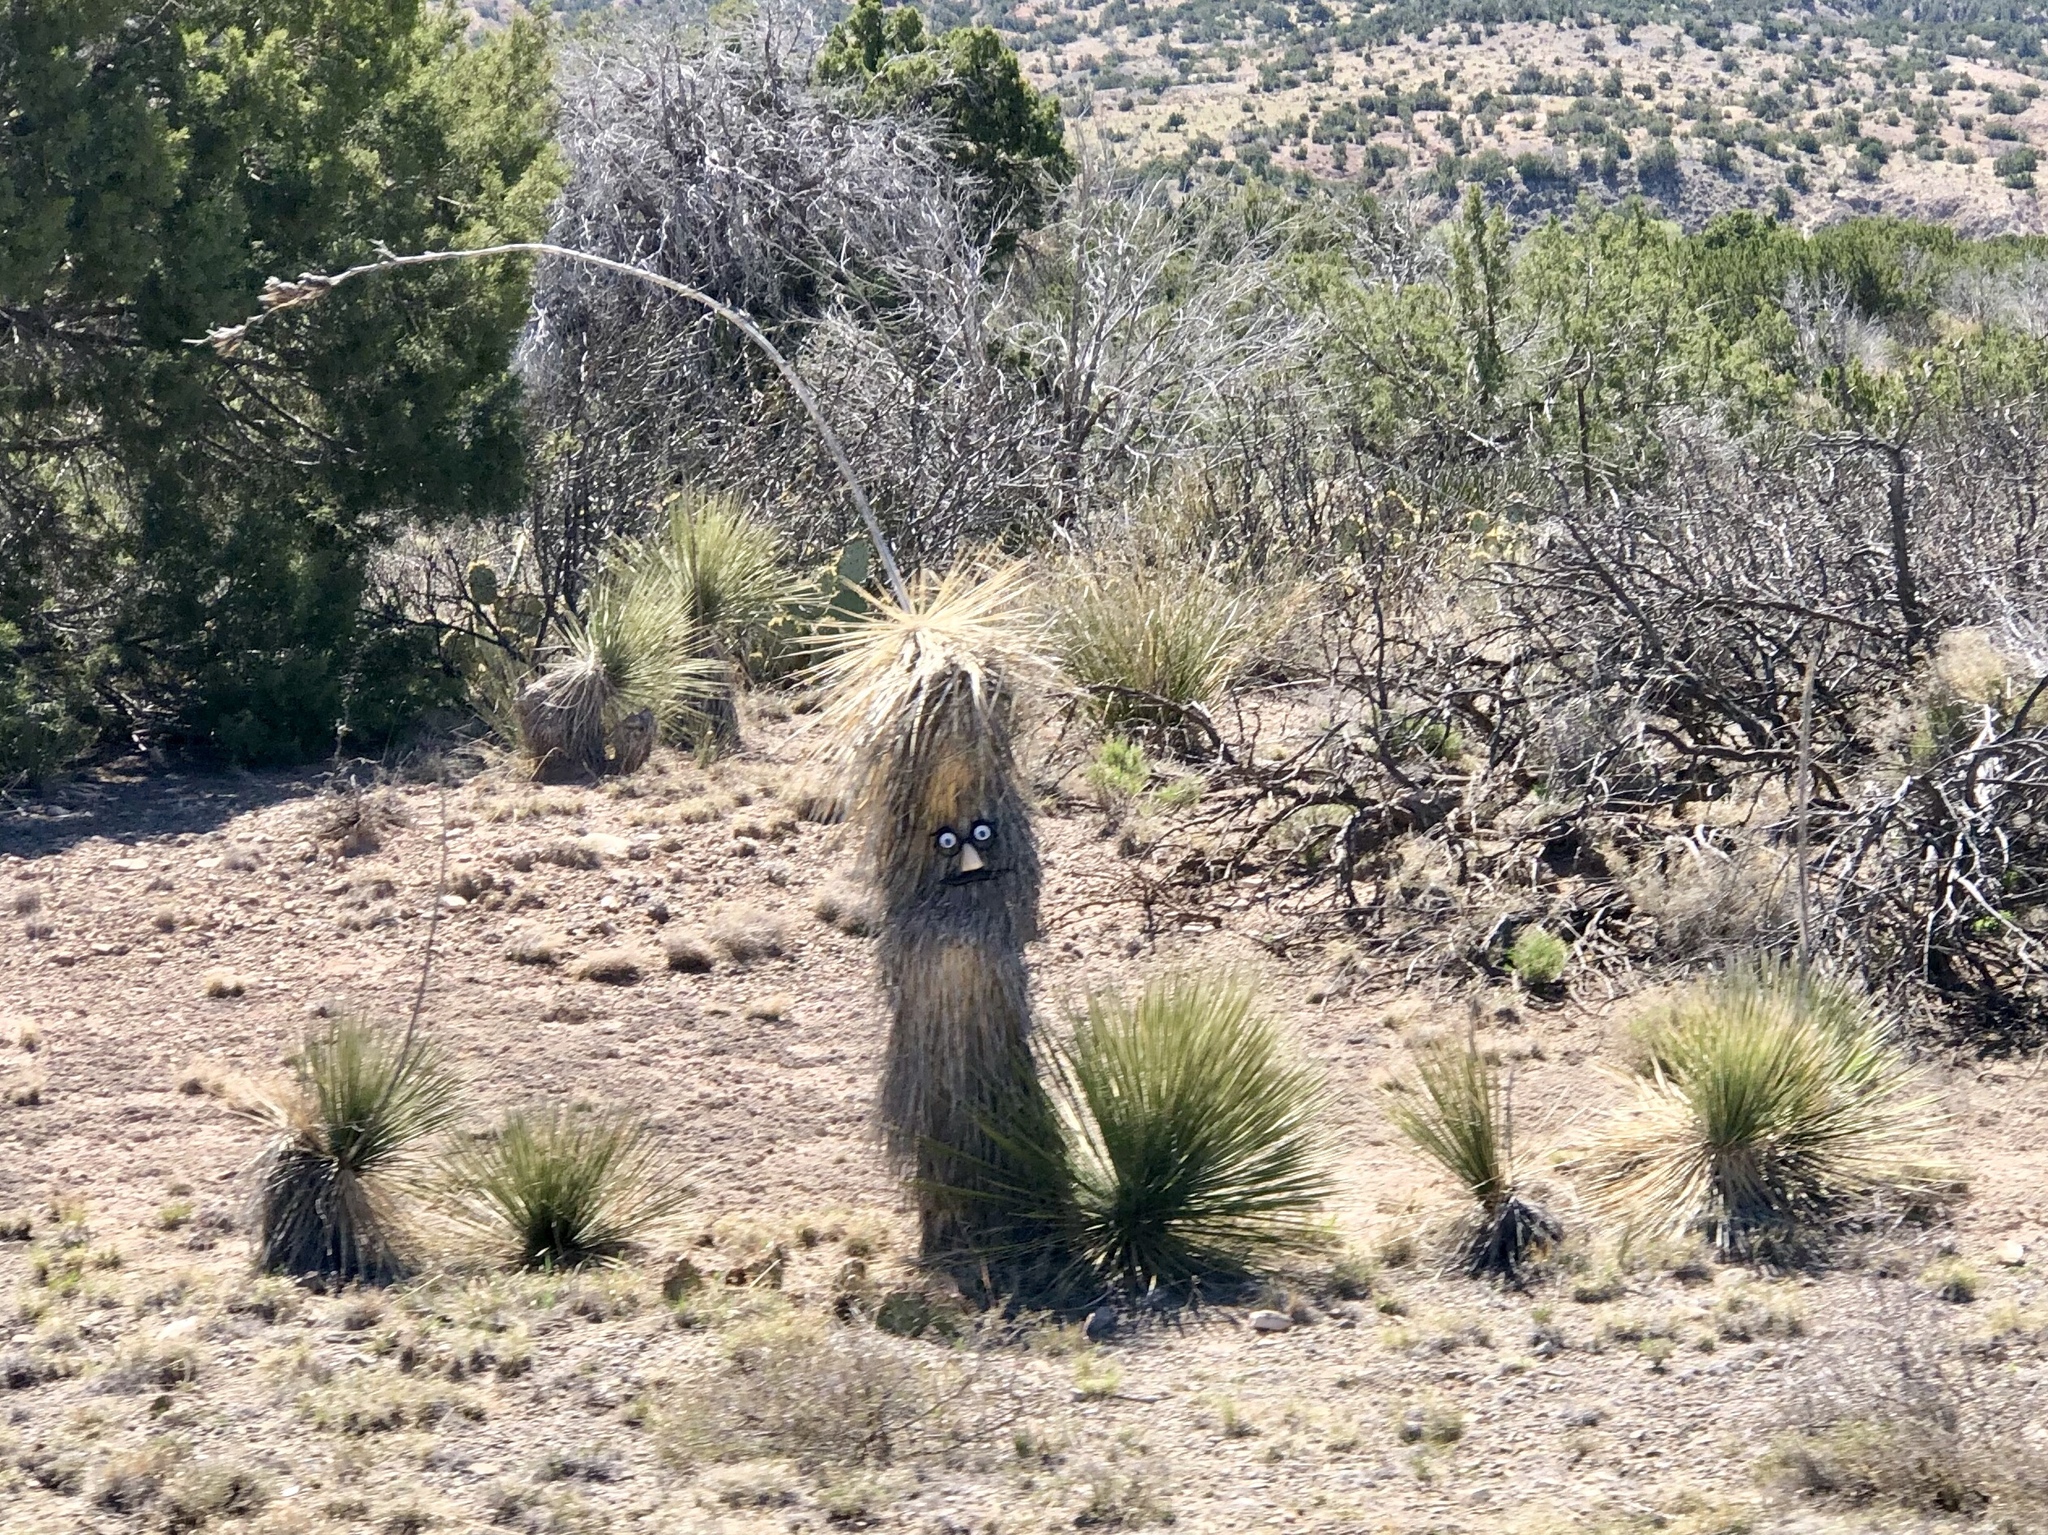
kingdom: Plantae
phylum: Tracheophyta
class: Liliopsida
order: Asparagales
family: Asparagaceae
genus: Yucca
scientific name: Yucca elata
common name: Palmella
